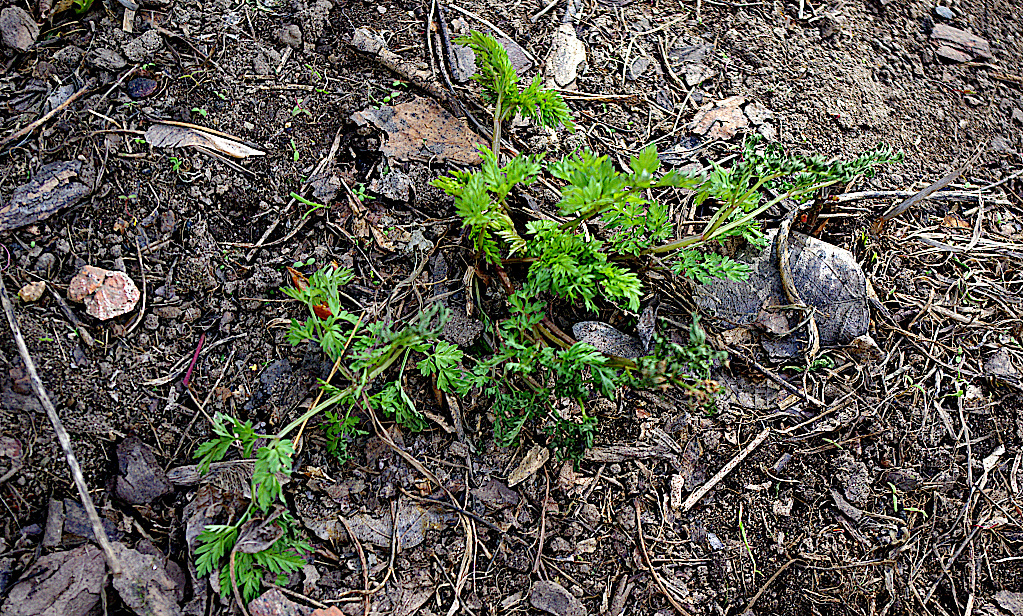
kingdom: Plantae
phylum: Tracheophyta
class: Magnoliopsida
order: Apiales
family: Apiaceae
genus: Anthriscus
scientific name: Anthriscus sylvestris
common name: Cow parsley
